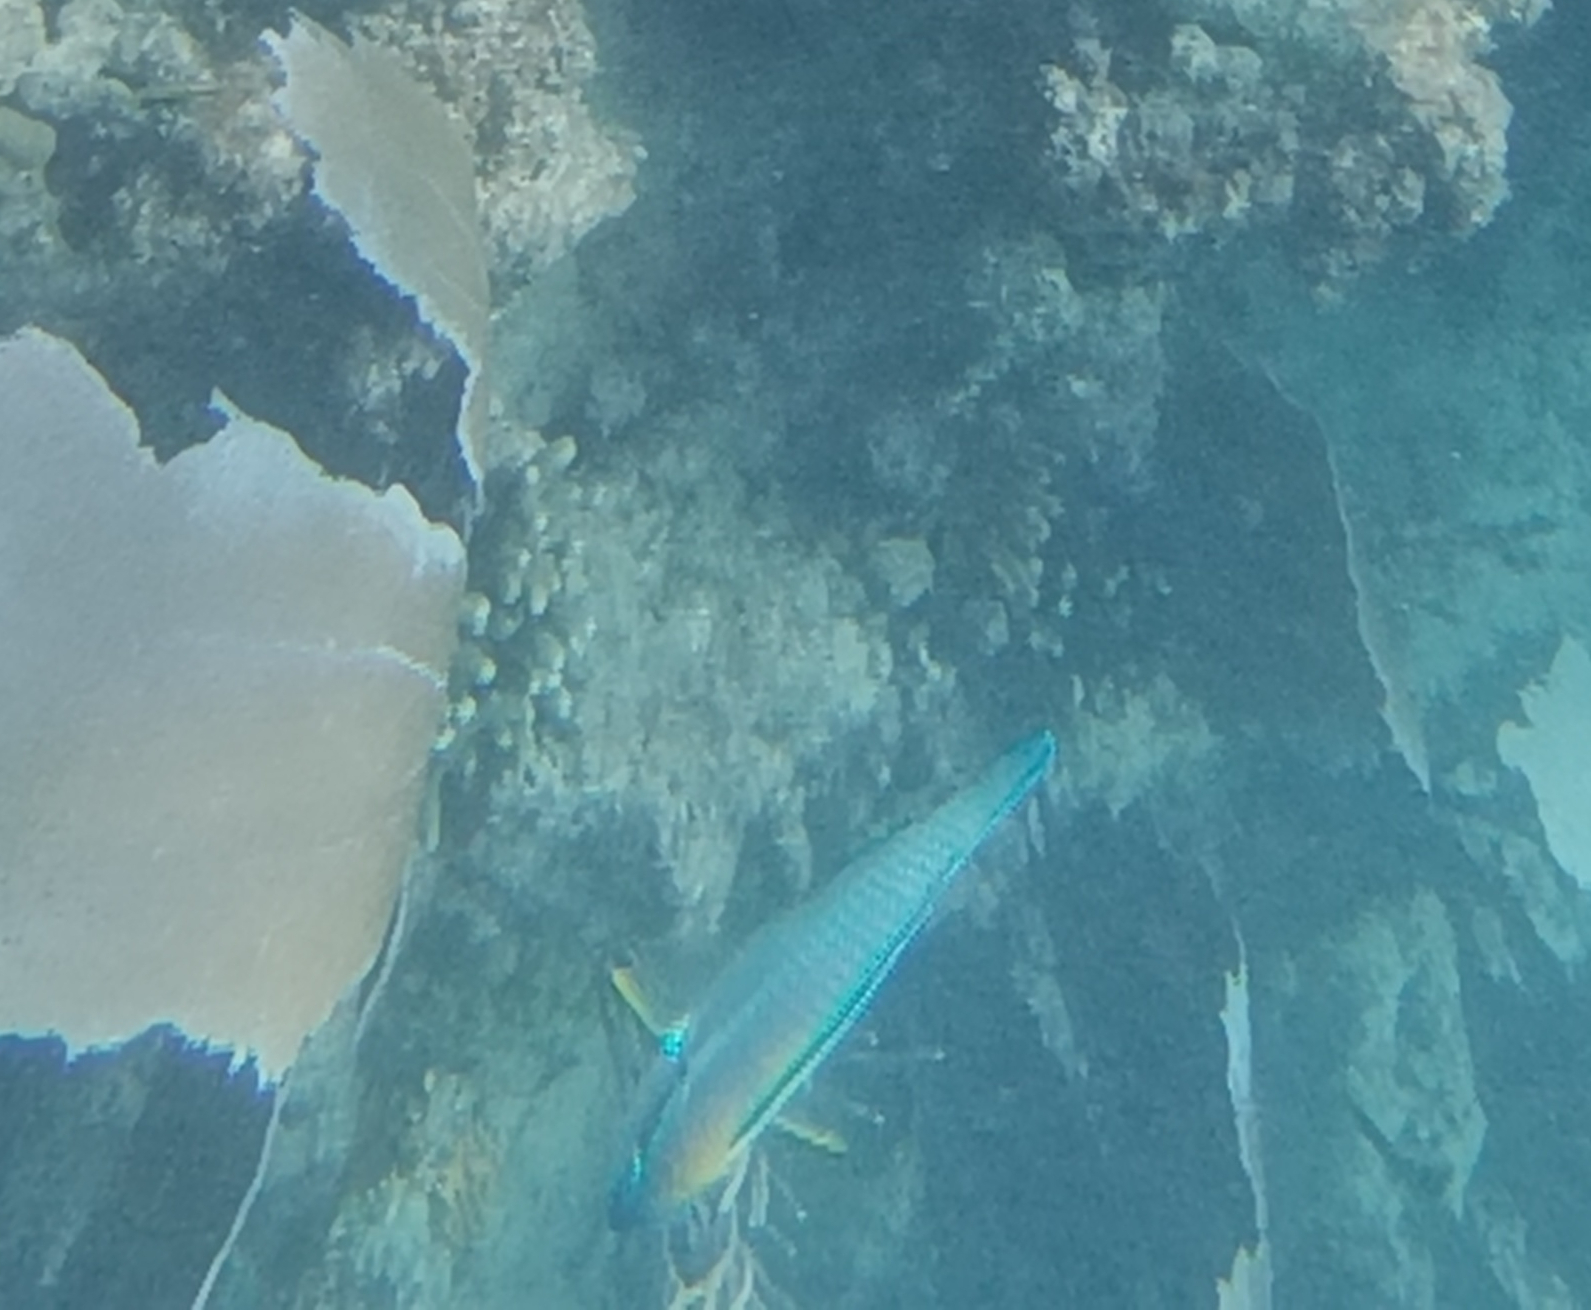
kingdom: Animalia
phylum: Chordata
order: Perciformes
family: Scaridae
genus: Scarus
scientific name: Scarus iseri
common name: Striped parrotfish
